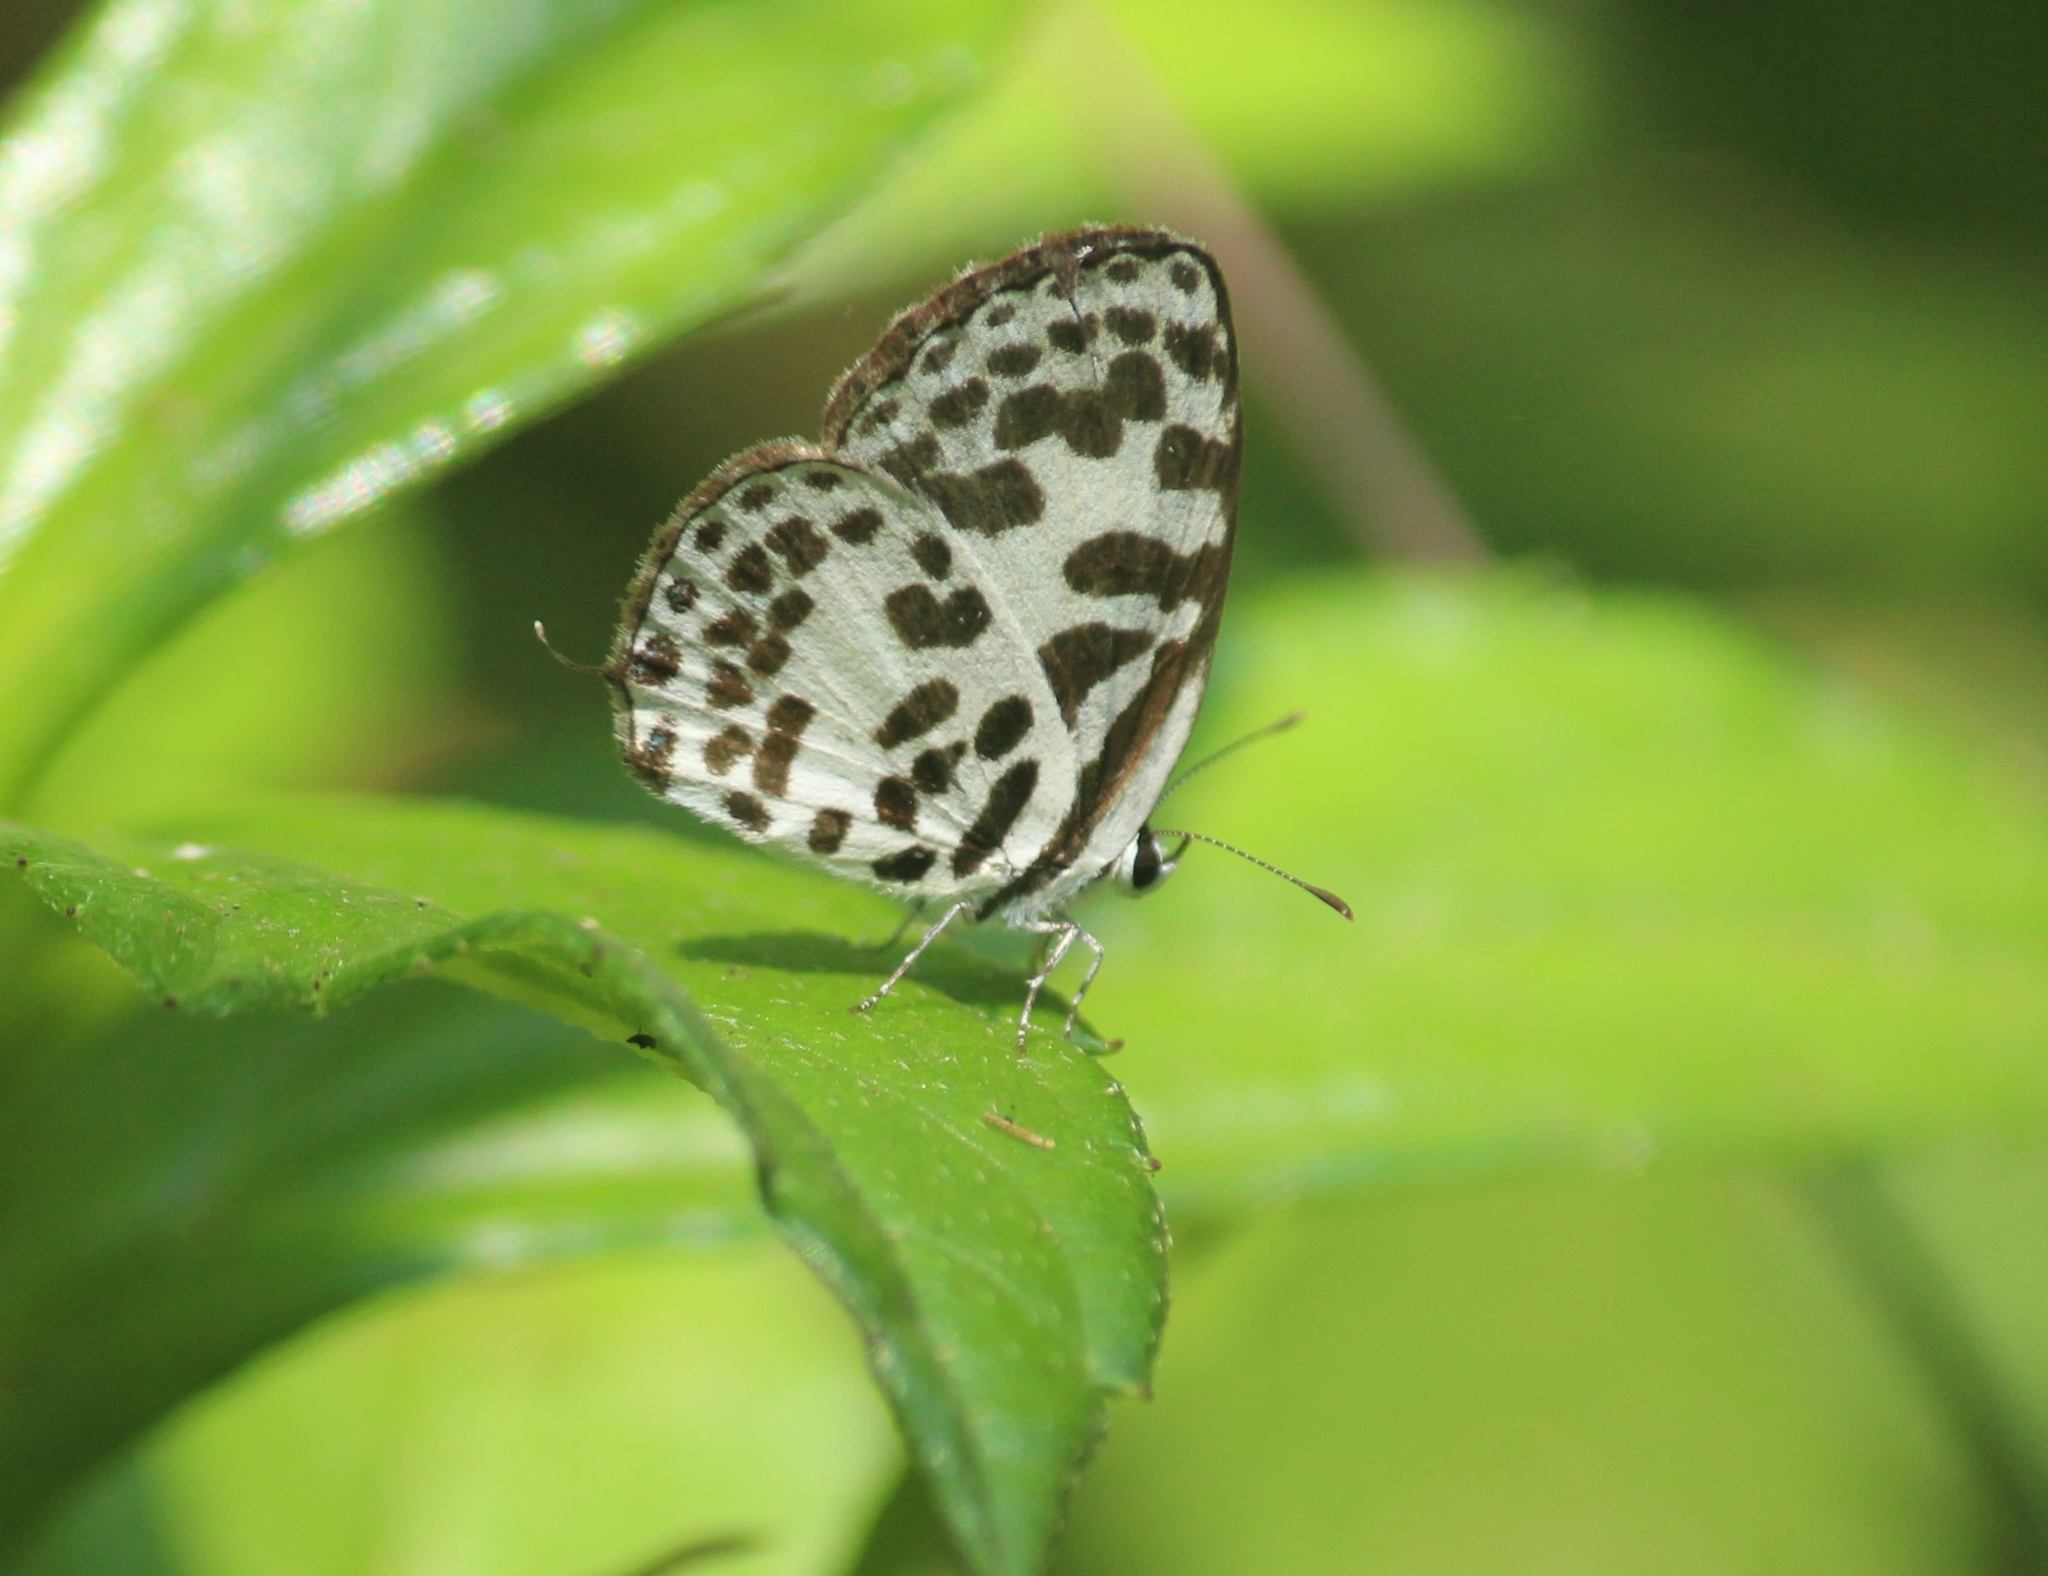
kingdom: Animalia
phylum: Arthropoda
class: Insecta
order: Lepidoptera
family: Lycaenidae
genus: Castalius
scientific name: Castalius rosimon
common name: Common pierrot
